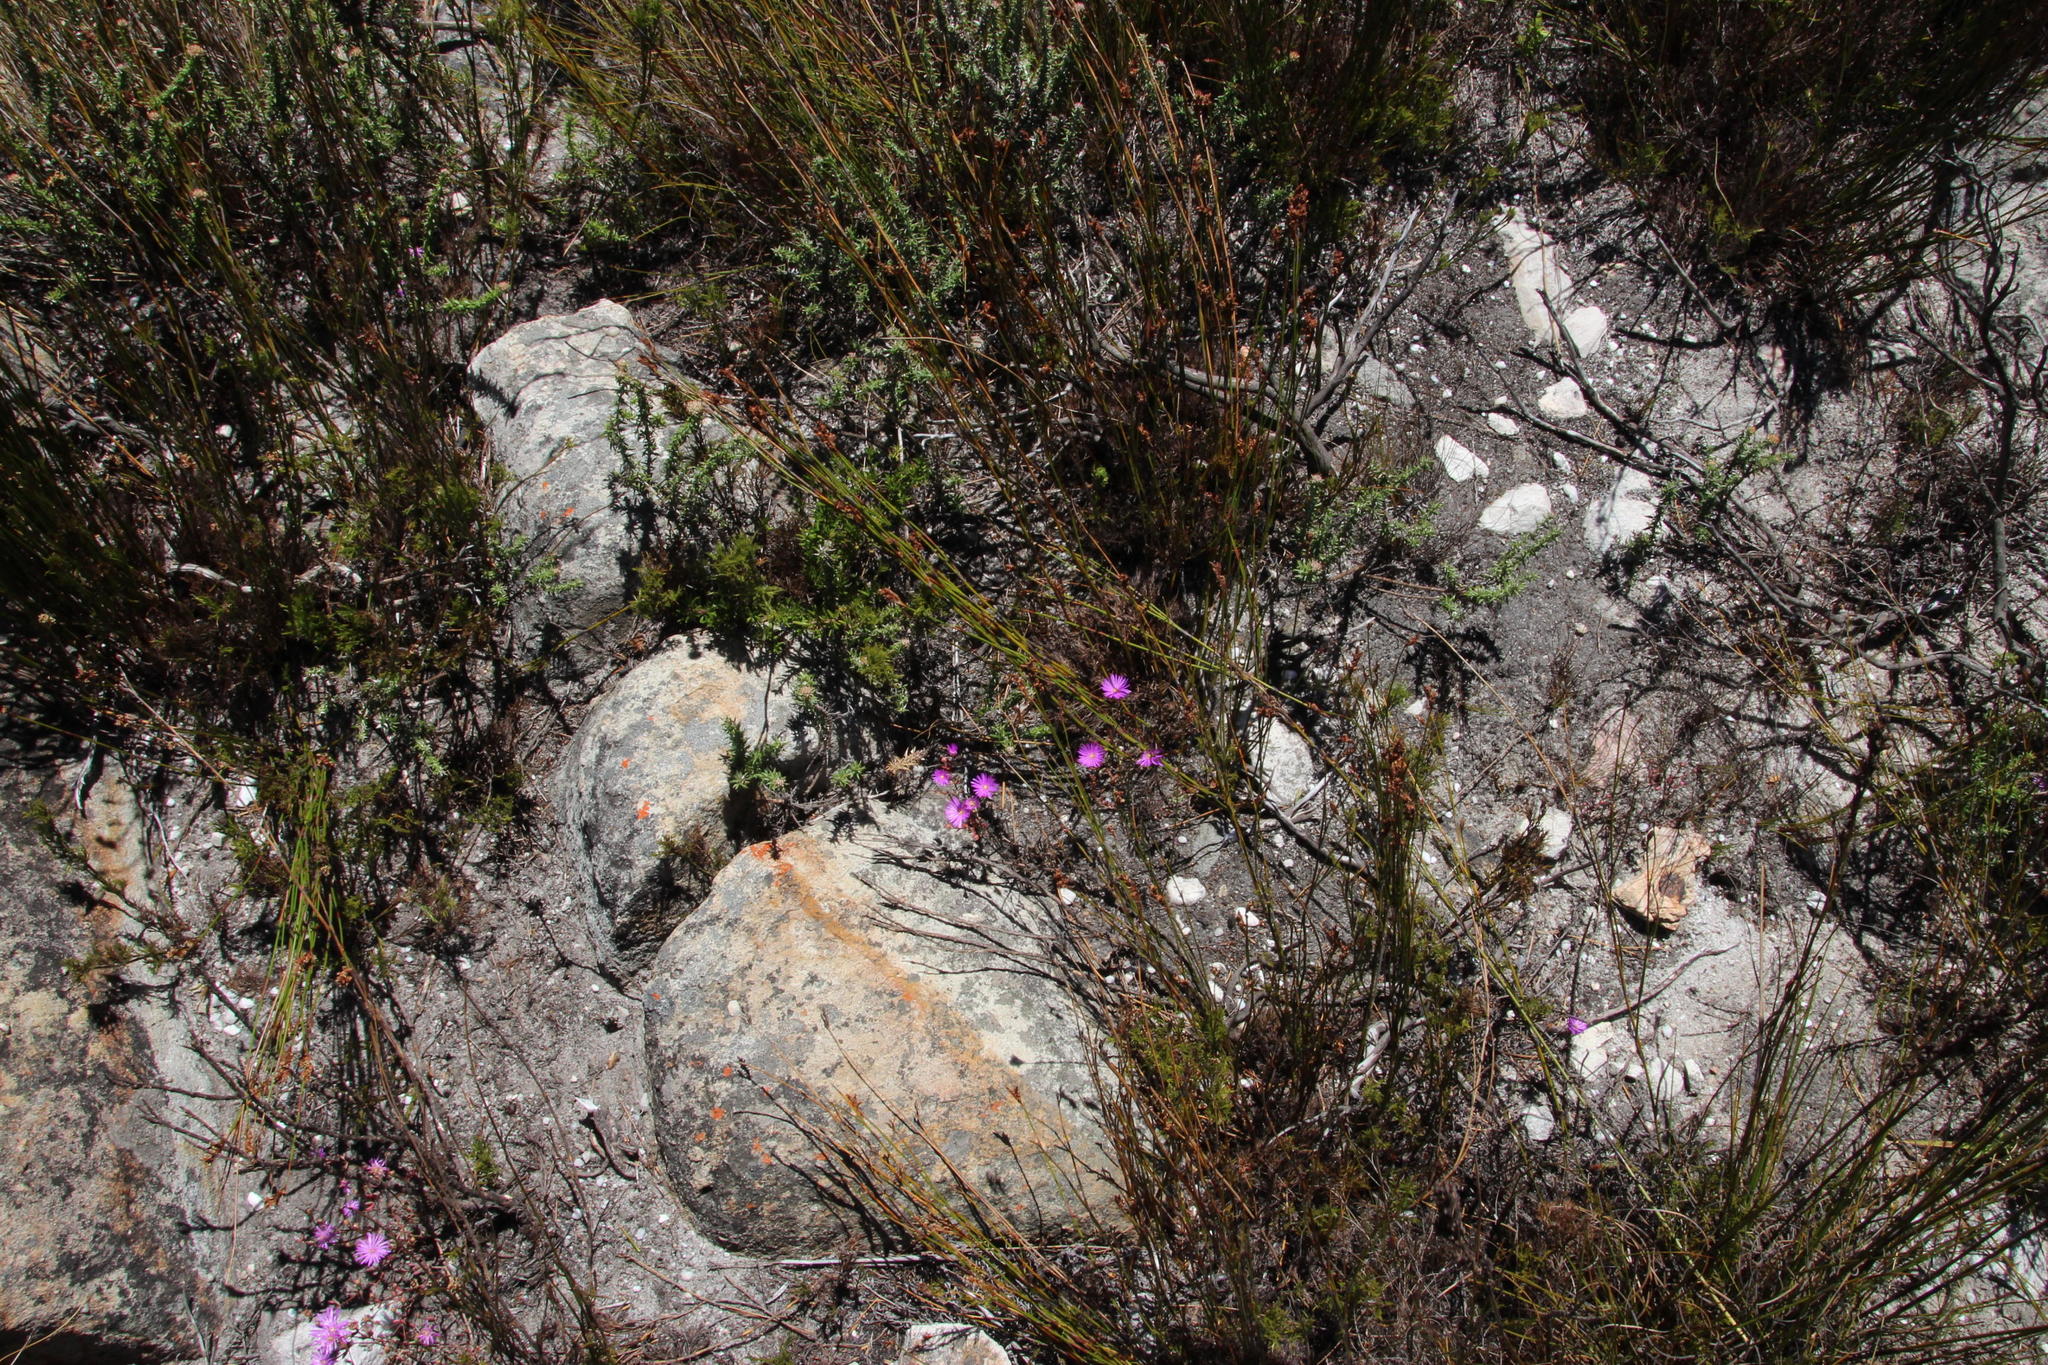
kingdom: Plantae
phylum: Tracheophyta
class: Magnoliopsida
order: Caryophyllales
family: Aizoaceae
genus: Lampranthus
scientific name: Lampranthus falcatus
